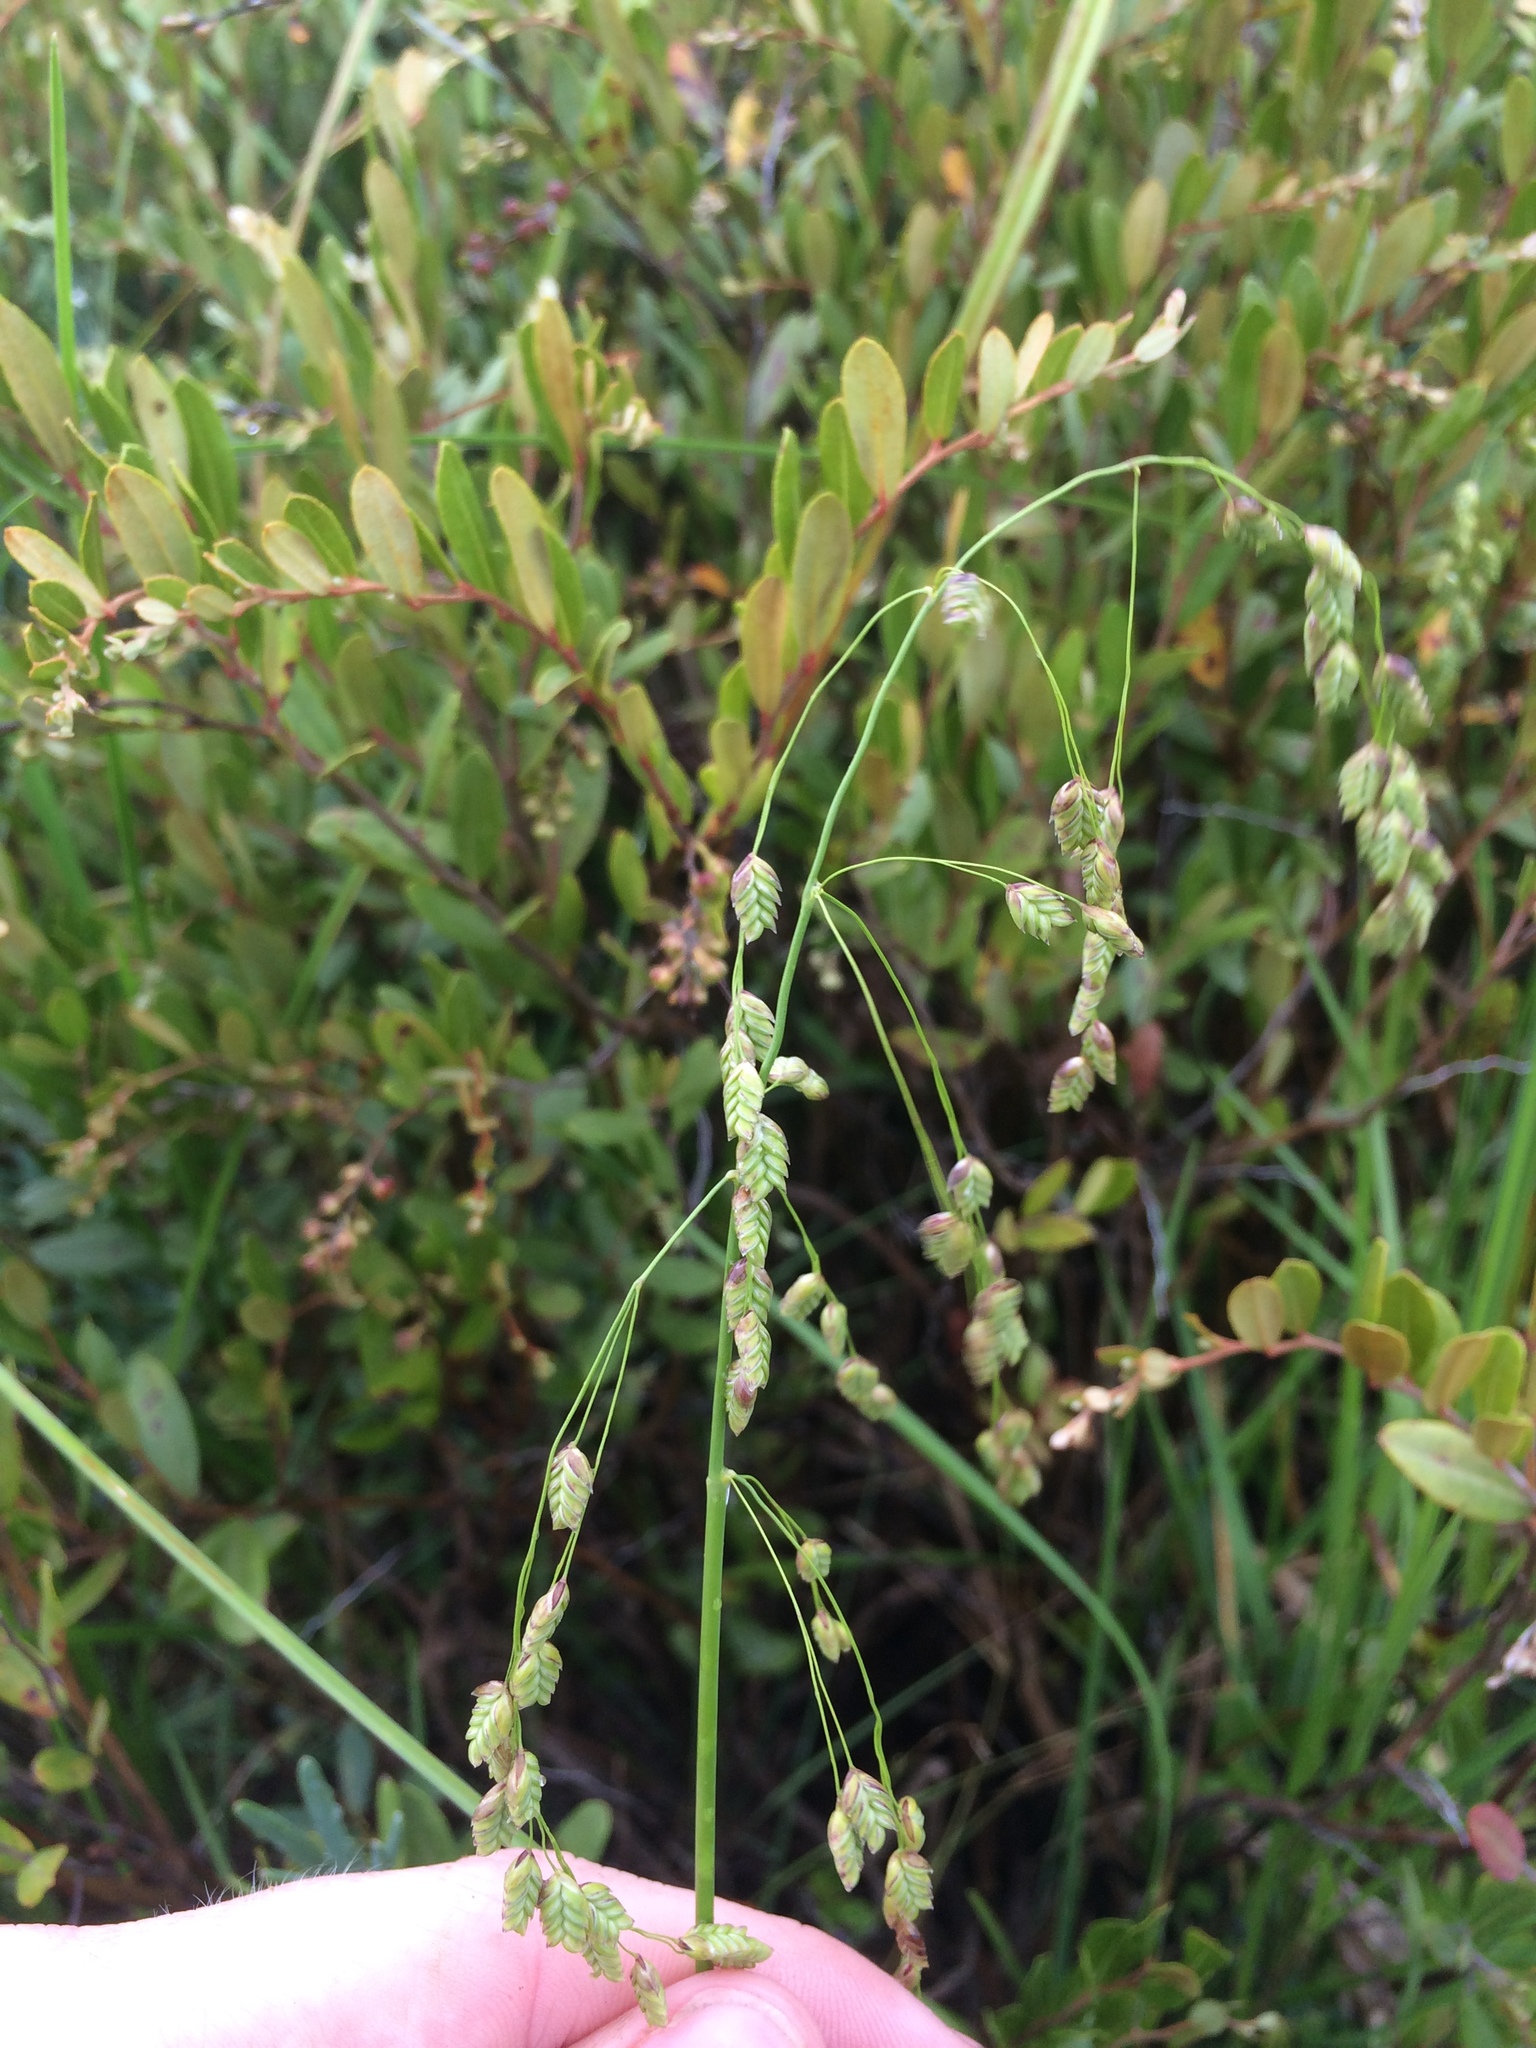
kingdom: Plantae
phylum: Tracheophyta
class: Liliopsida
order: Poales
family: Poaceae
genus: Glyceria
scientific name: Glyceria canadensis
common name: Canada mannagrass
